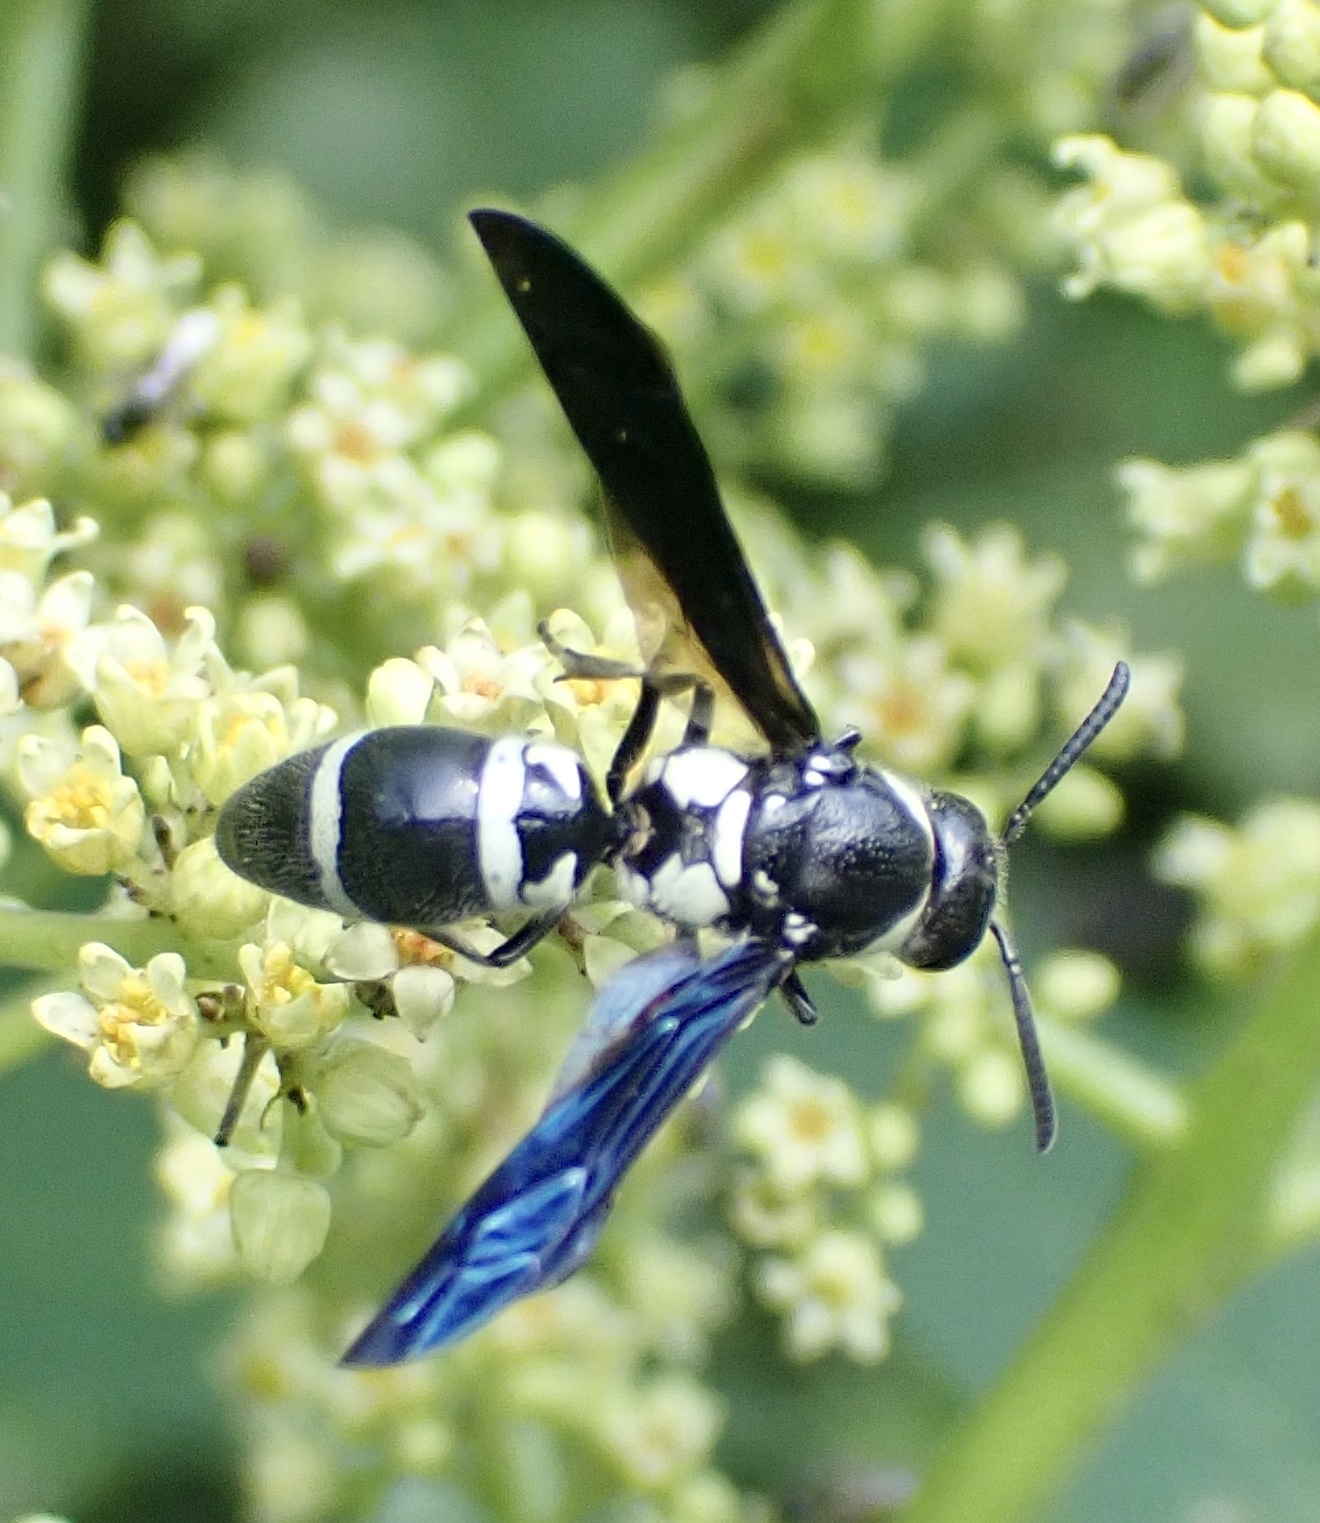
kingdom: Animalia
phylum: Arthropoda
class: Insecta
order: Hymenoptera
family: Eumenidae
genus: Pseudodynerus
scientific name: Pseudodynerus quadrisectus
